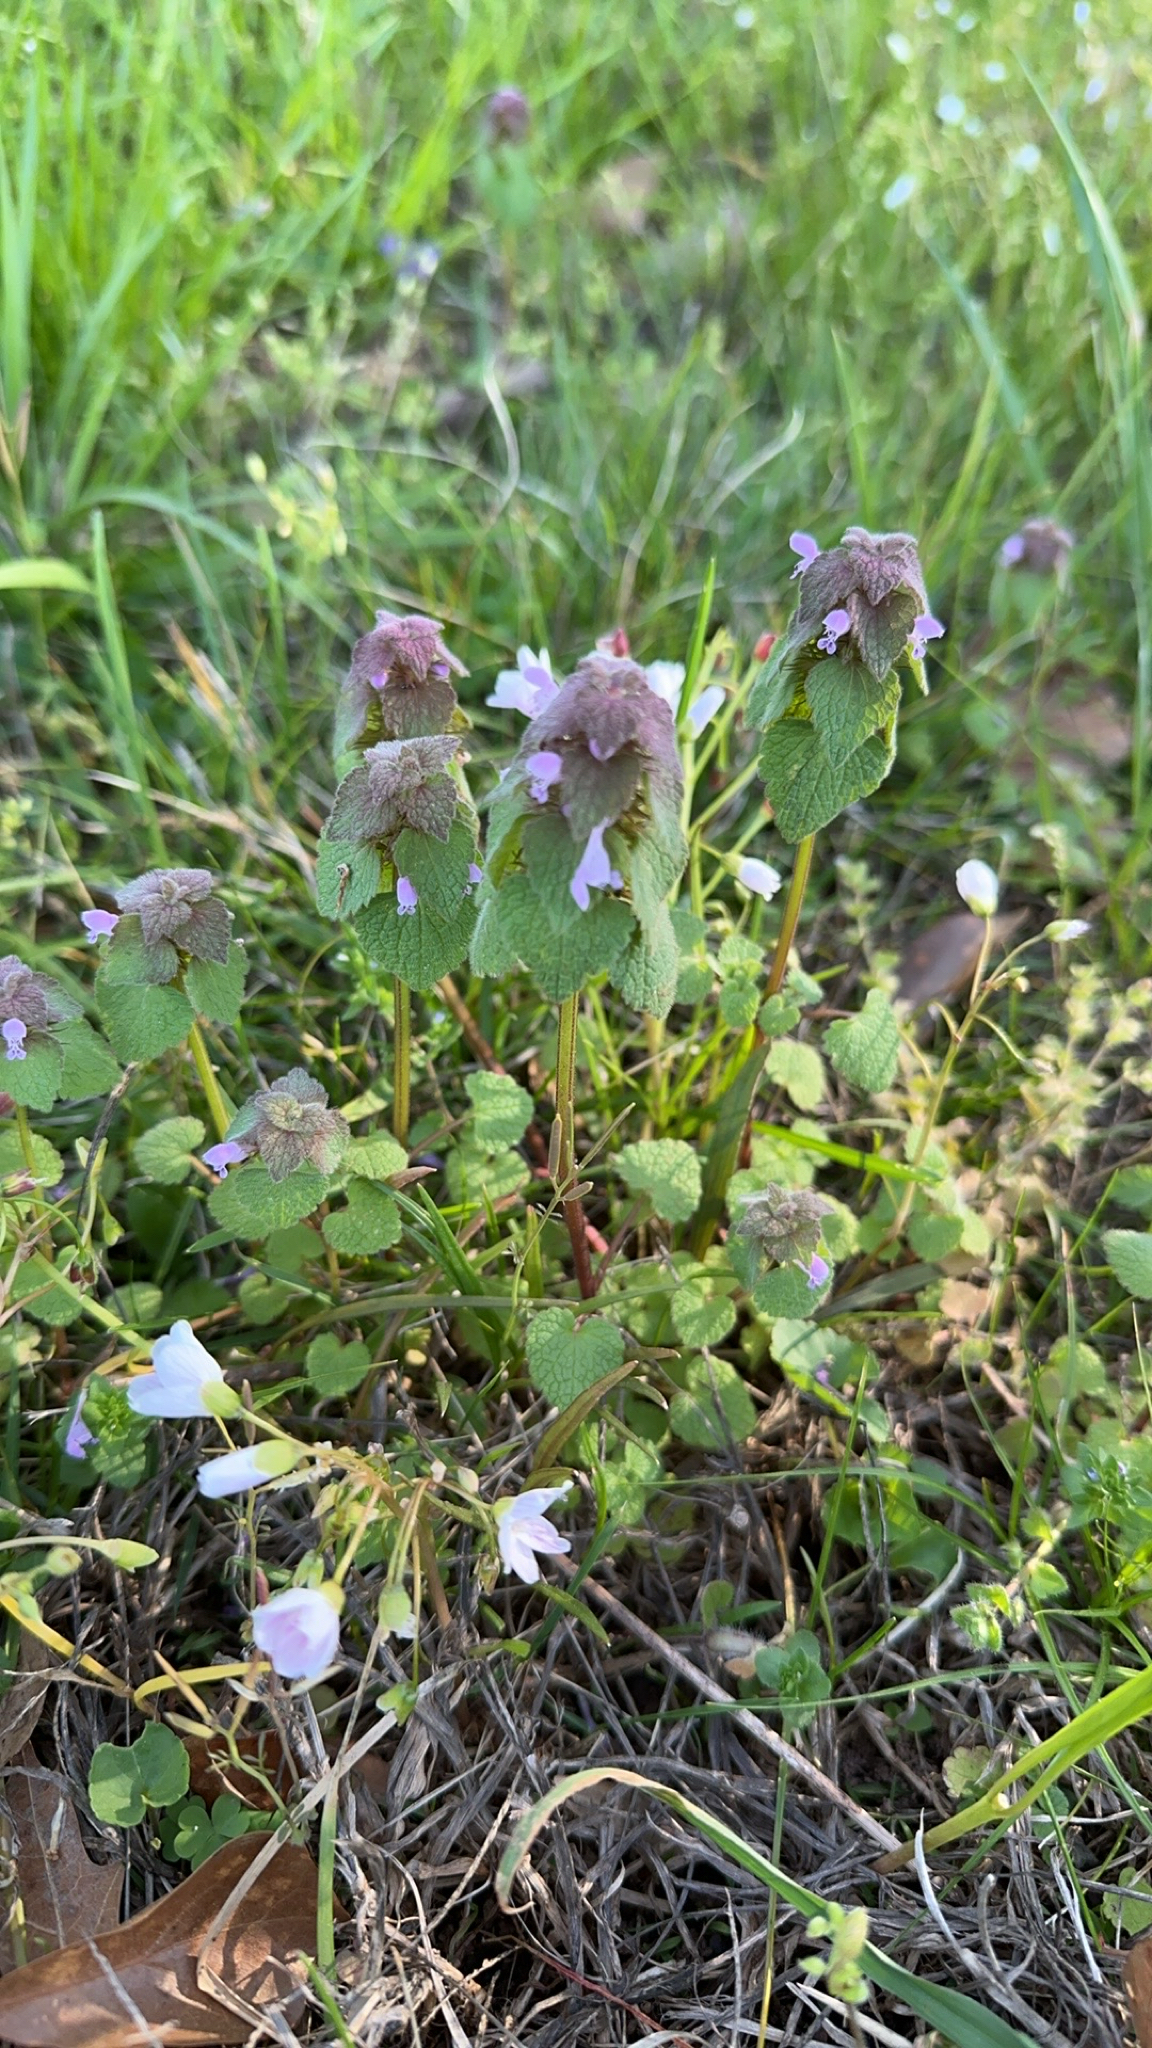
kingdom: Plantae
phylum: Tracheophyta
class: Magnoliopsida
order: Lamiales
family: Lamiaceae
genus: Lamium
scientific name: Lamium purpureum
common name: Red dead-nettle
